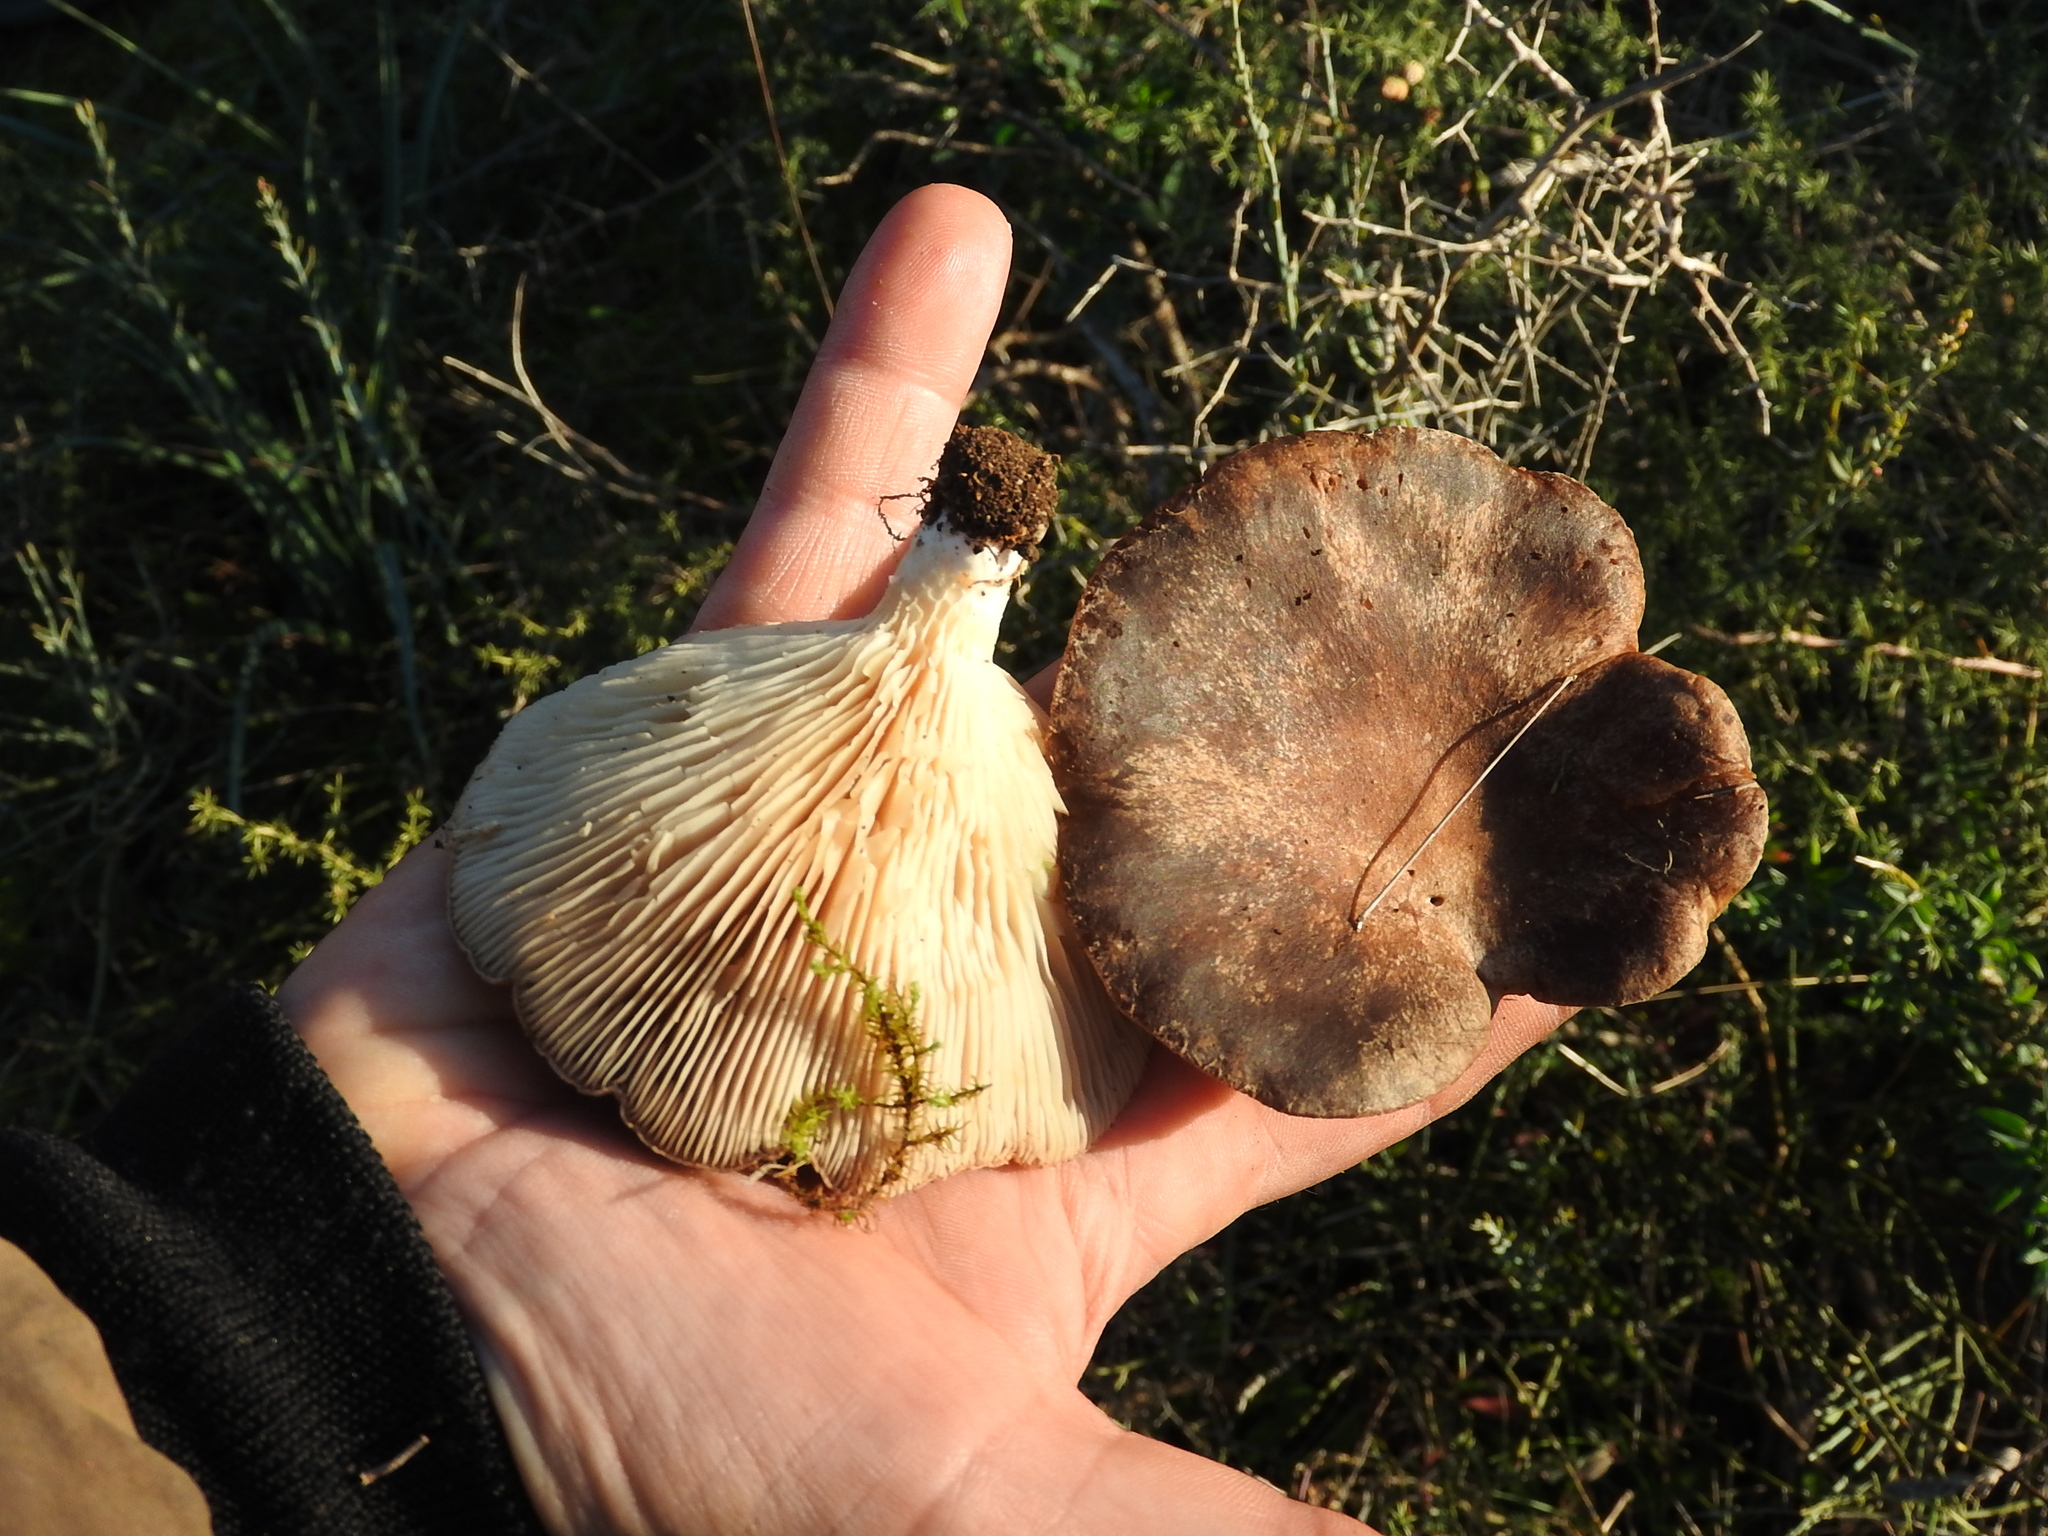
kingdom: Fungi
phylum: Basidiomycota
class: Agaricomycetes
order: Agaricales
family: Pleurotaceae
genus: Pleurotus
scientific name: Pleurotus eryngii
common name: King oyster
